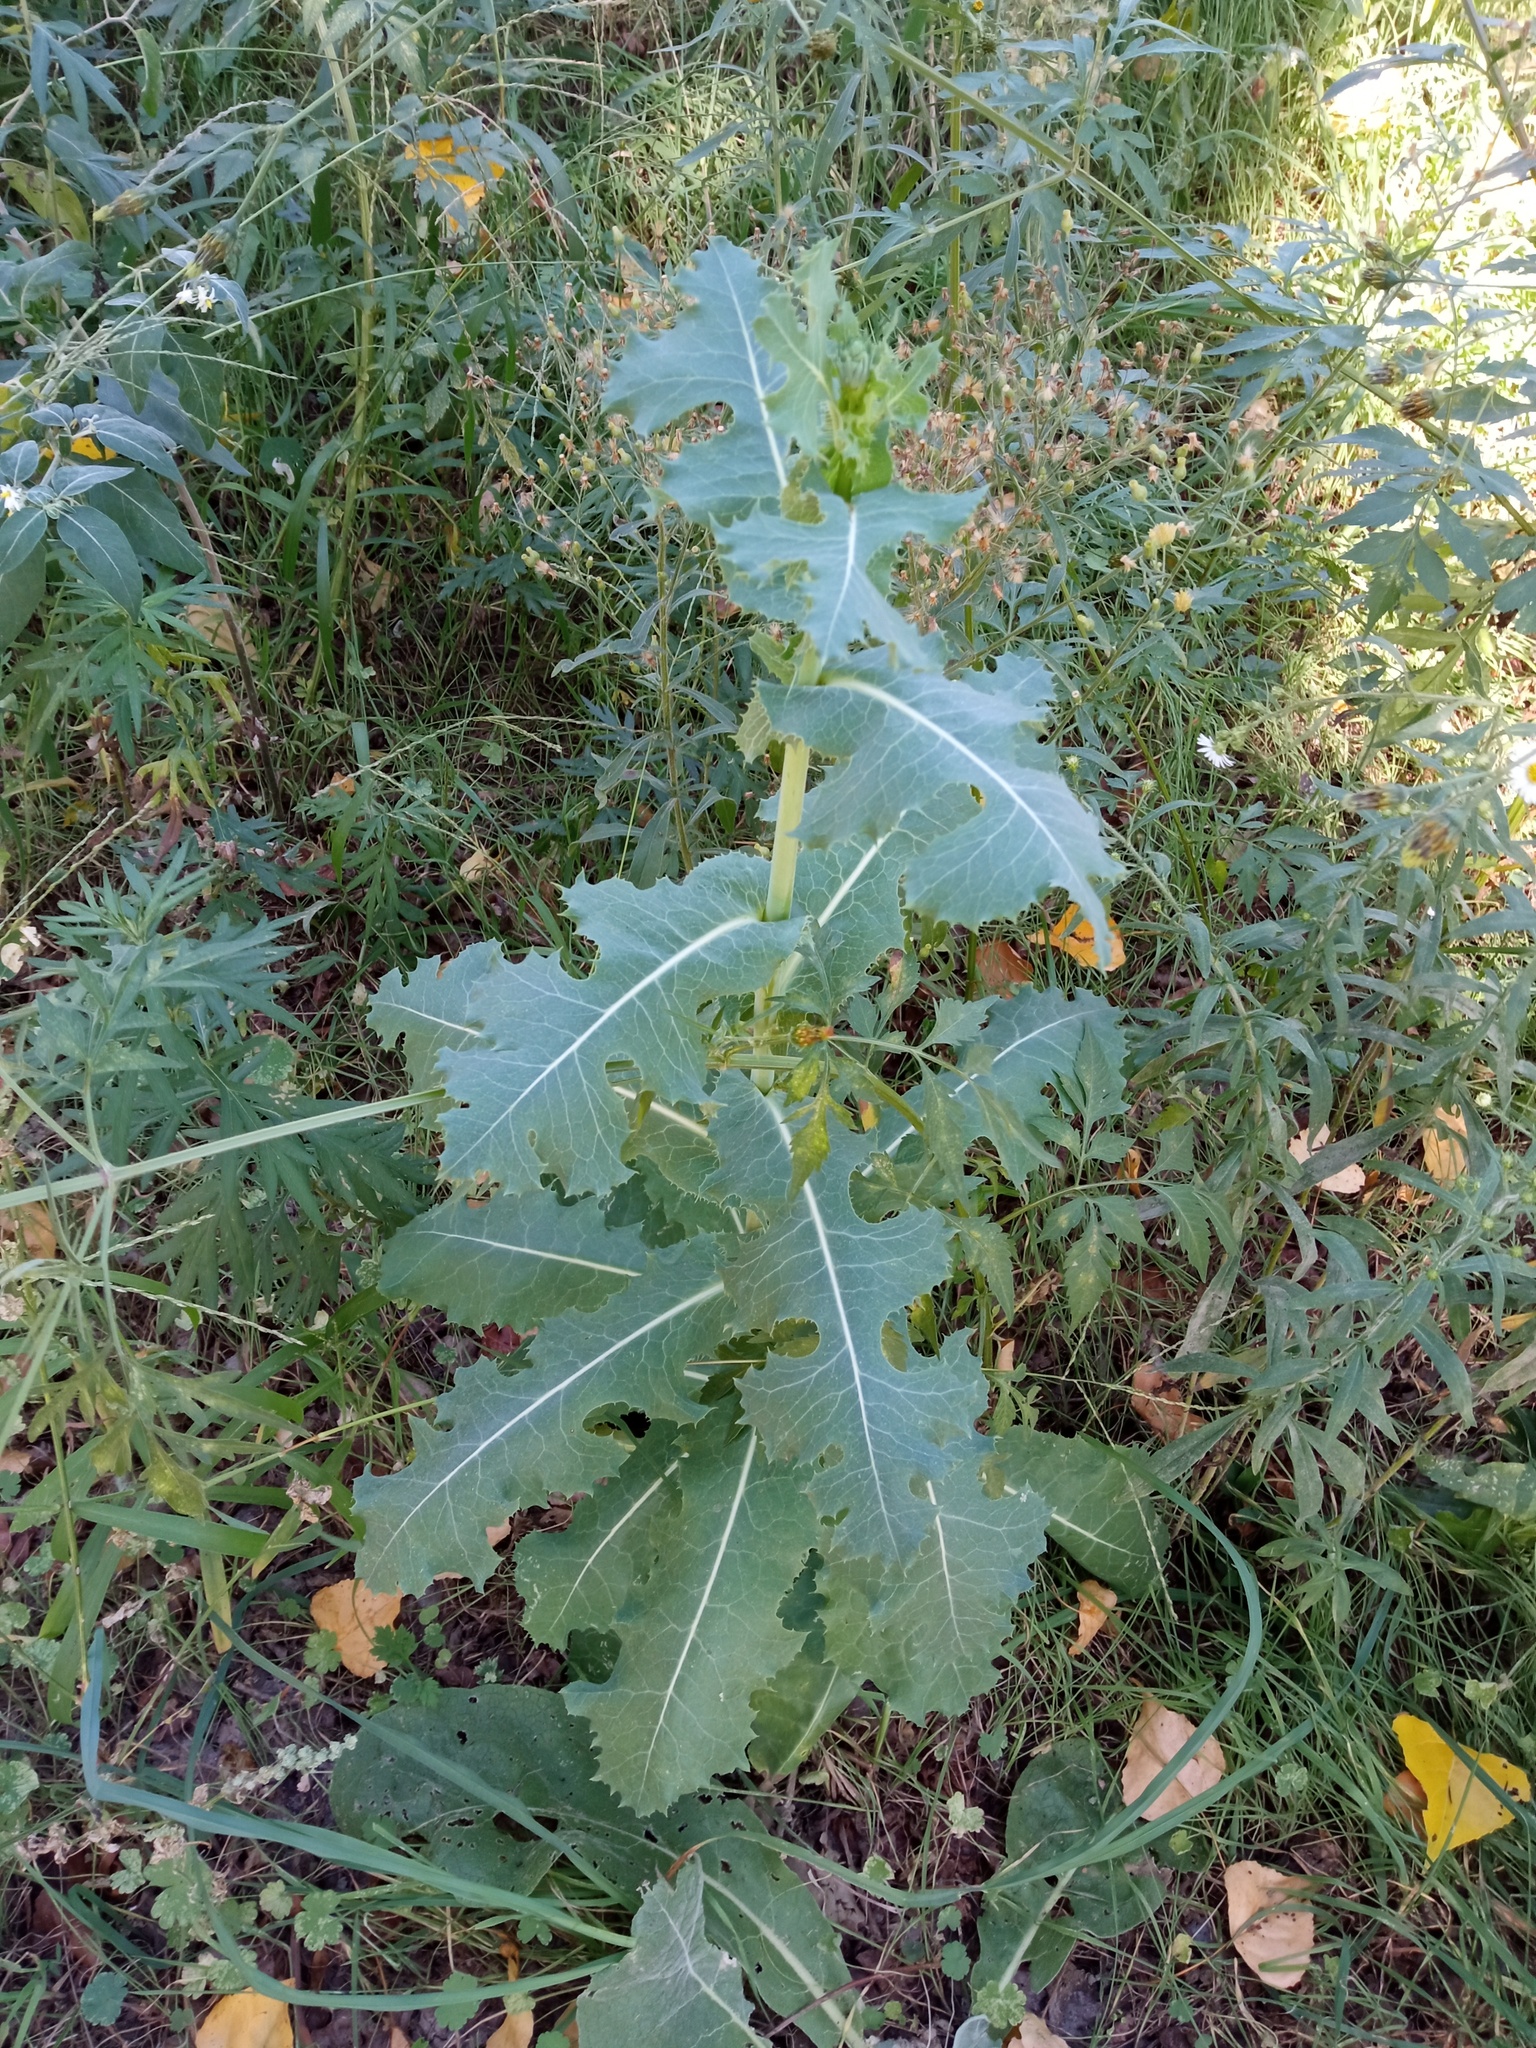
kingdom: Plantae
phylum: Tracheophyta
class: Magnoliopsida
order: Asterales
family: Asteraceae
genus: Lactuca
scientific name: Lactuca virosa
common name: Great lettuce
